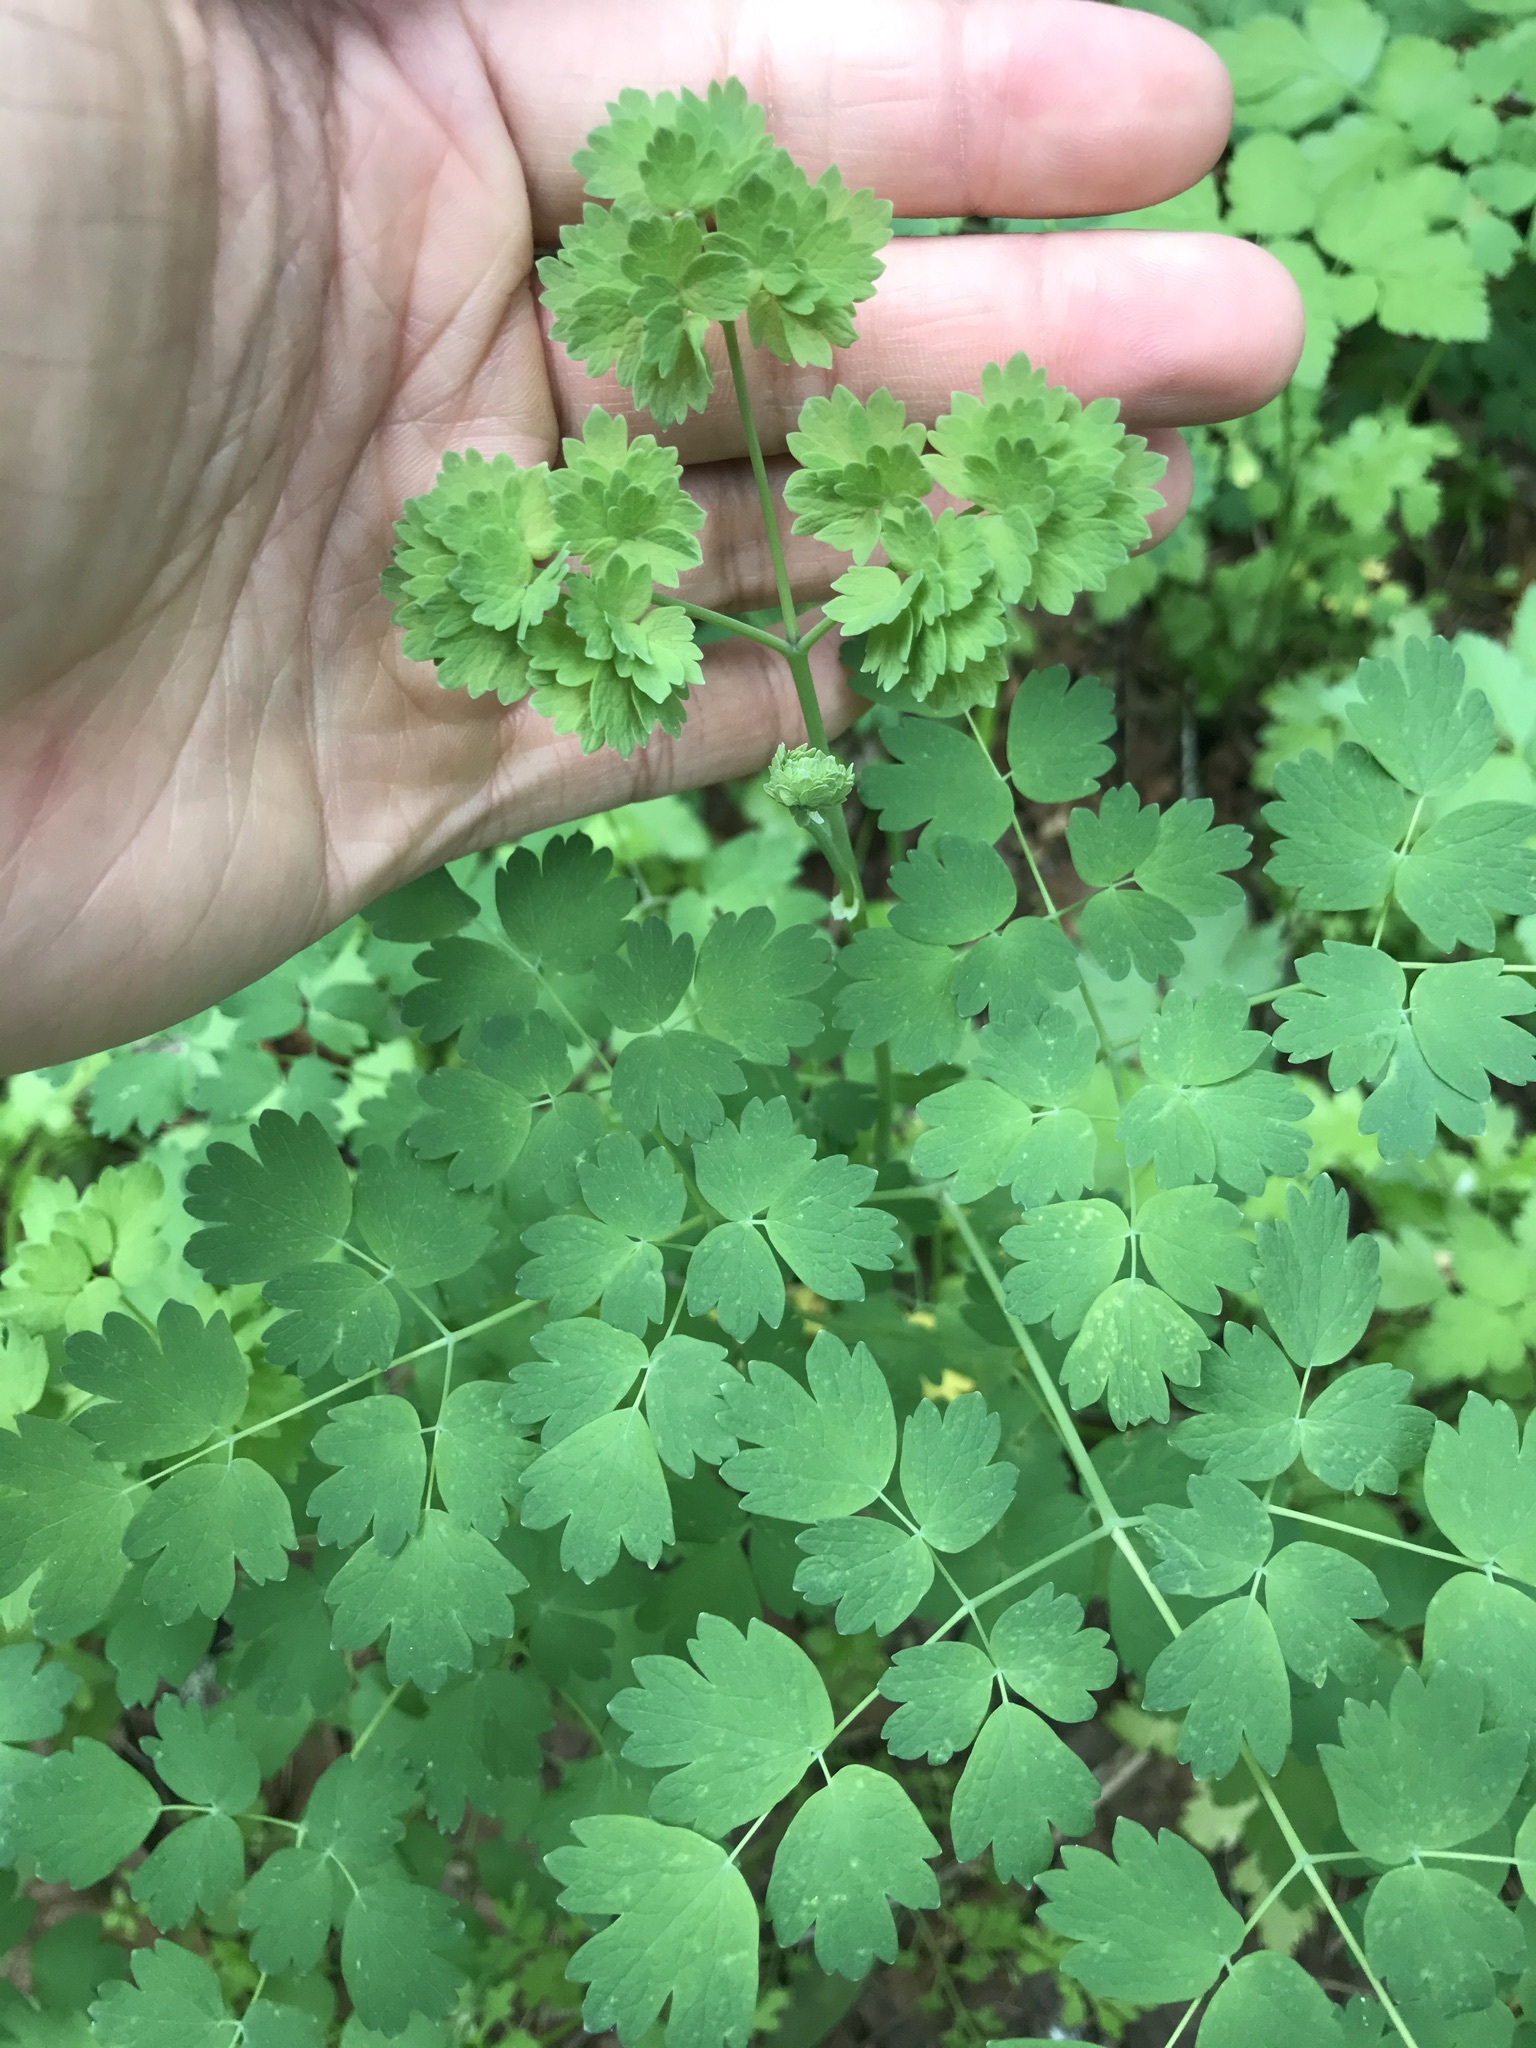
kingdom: Plantae
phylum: Tracheophyta
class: Magnoliopsida
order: Ranunculales
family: Ranunculaceae
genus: Thalictrum
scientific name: Thalictrum fendleri
